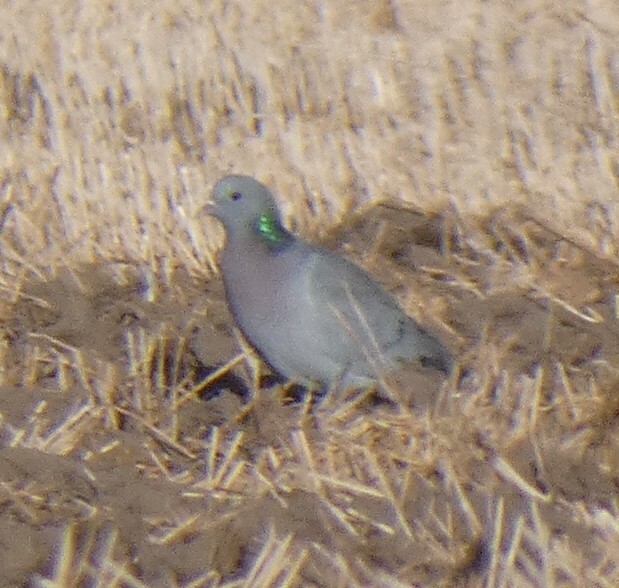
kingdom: Animalia
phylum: Chordata
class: Aves
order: Columbiformes
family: Columbidae
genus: Columba
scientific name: Columba oenas
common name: Stock dove
